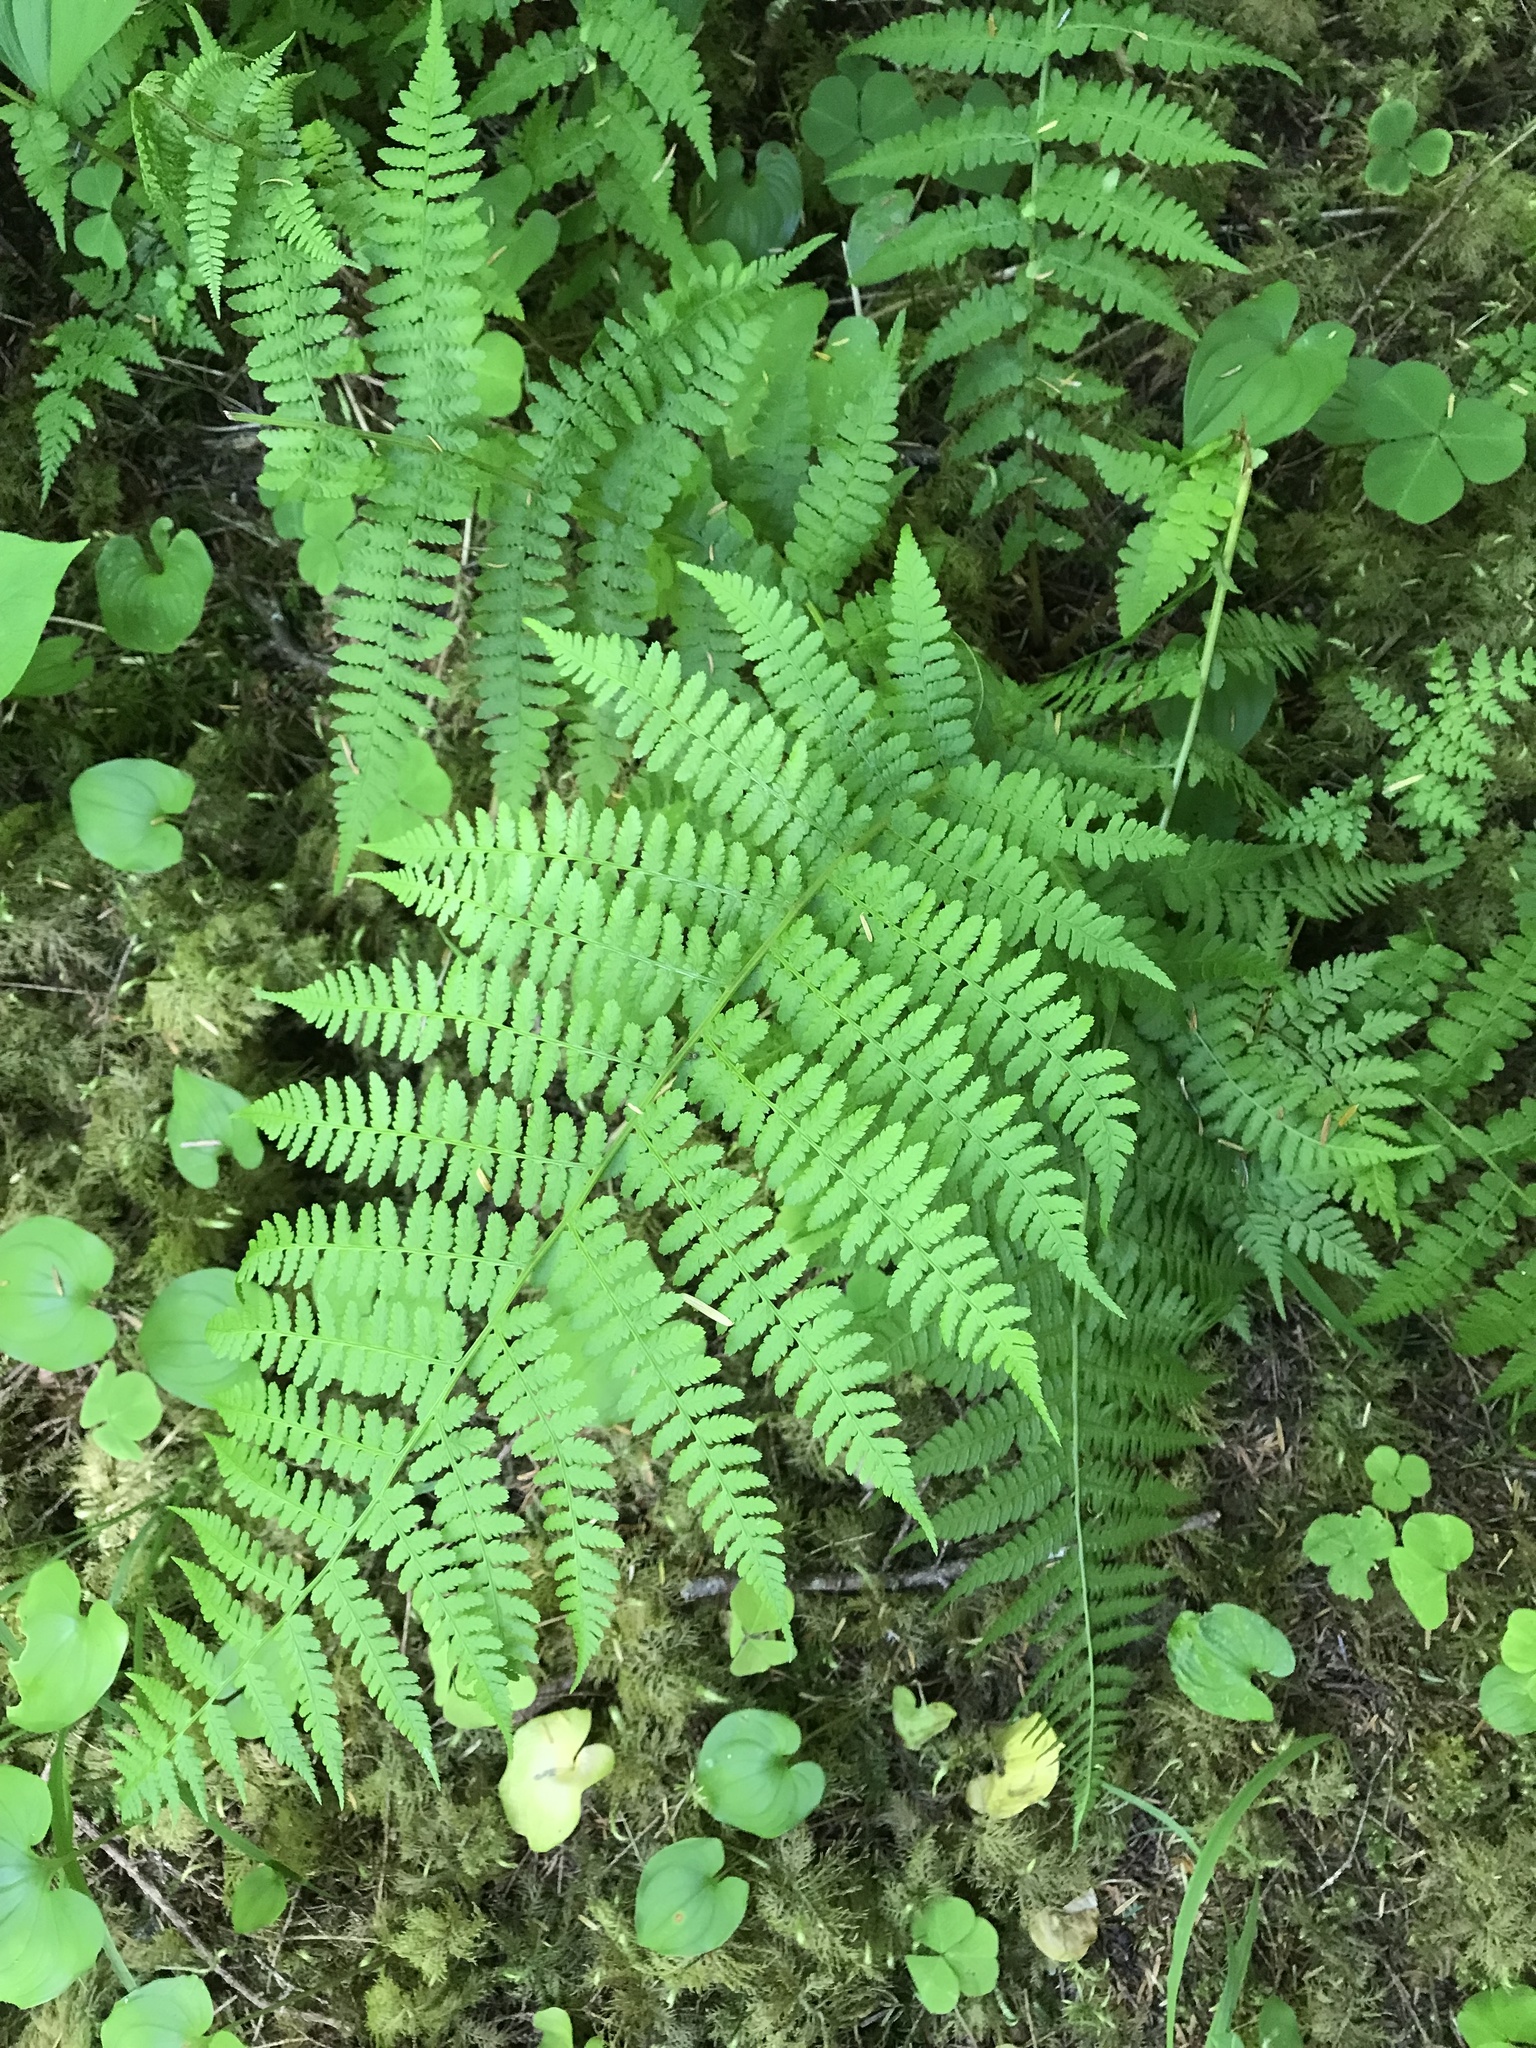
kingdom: Plantae
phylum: Tracheophyta
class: Polypodiopsida
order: Polypodiales
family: Athyriaceae
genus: Athyrium
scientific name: Athyrium filix-femina
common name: Lady fern
